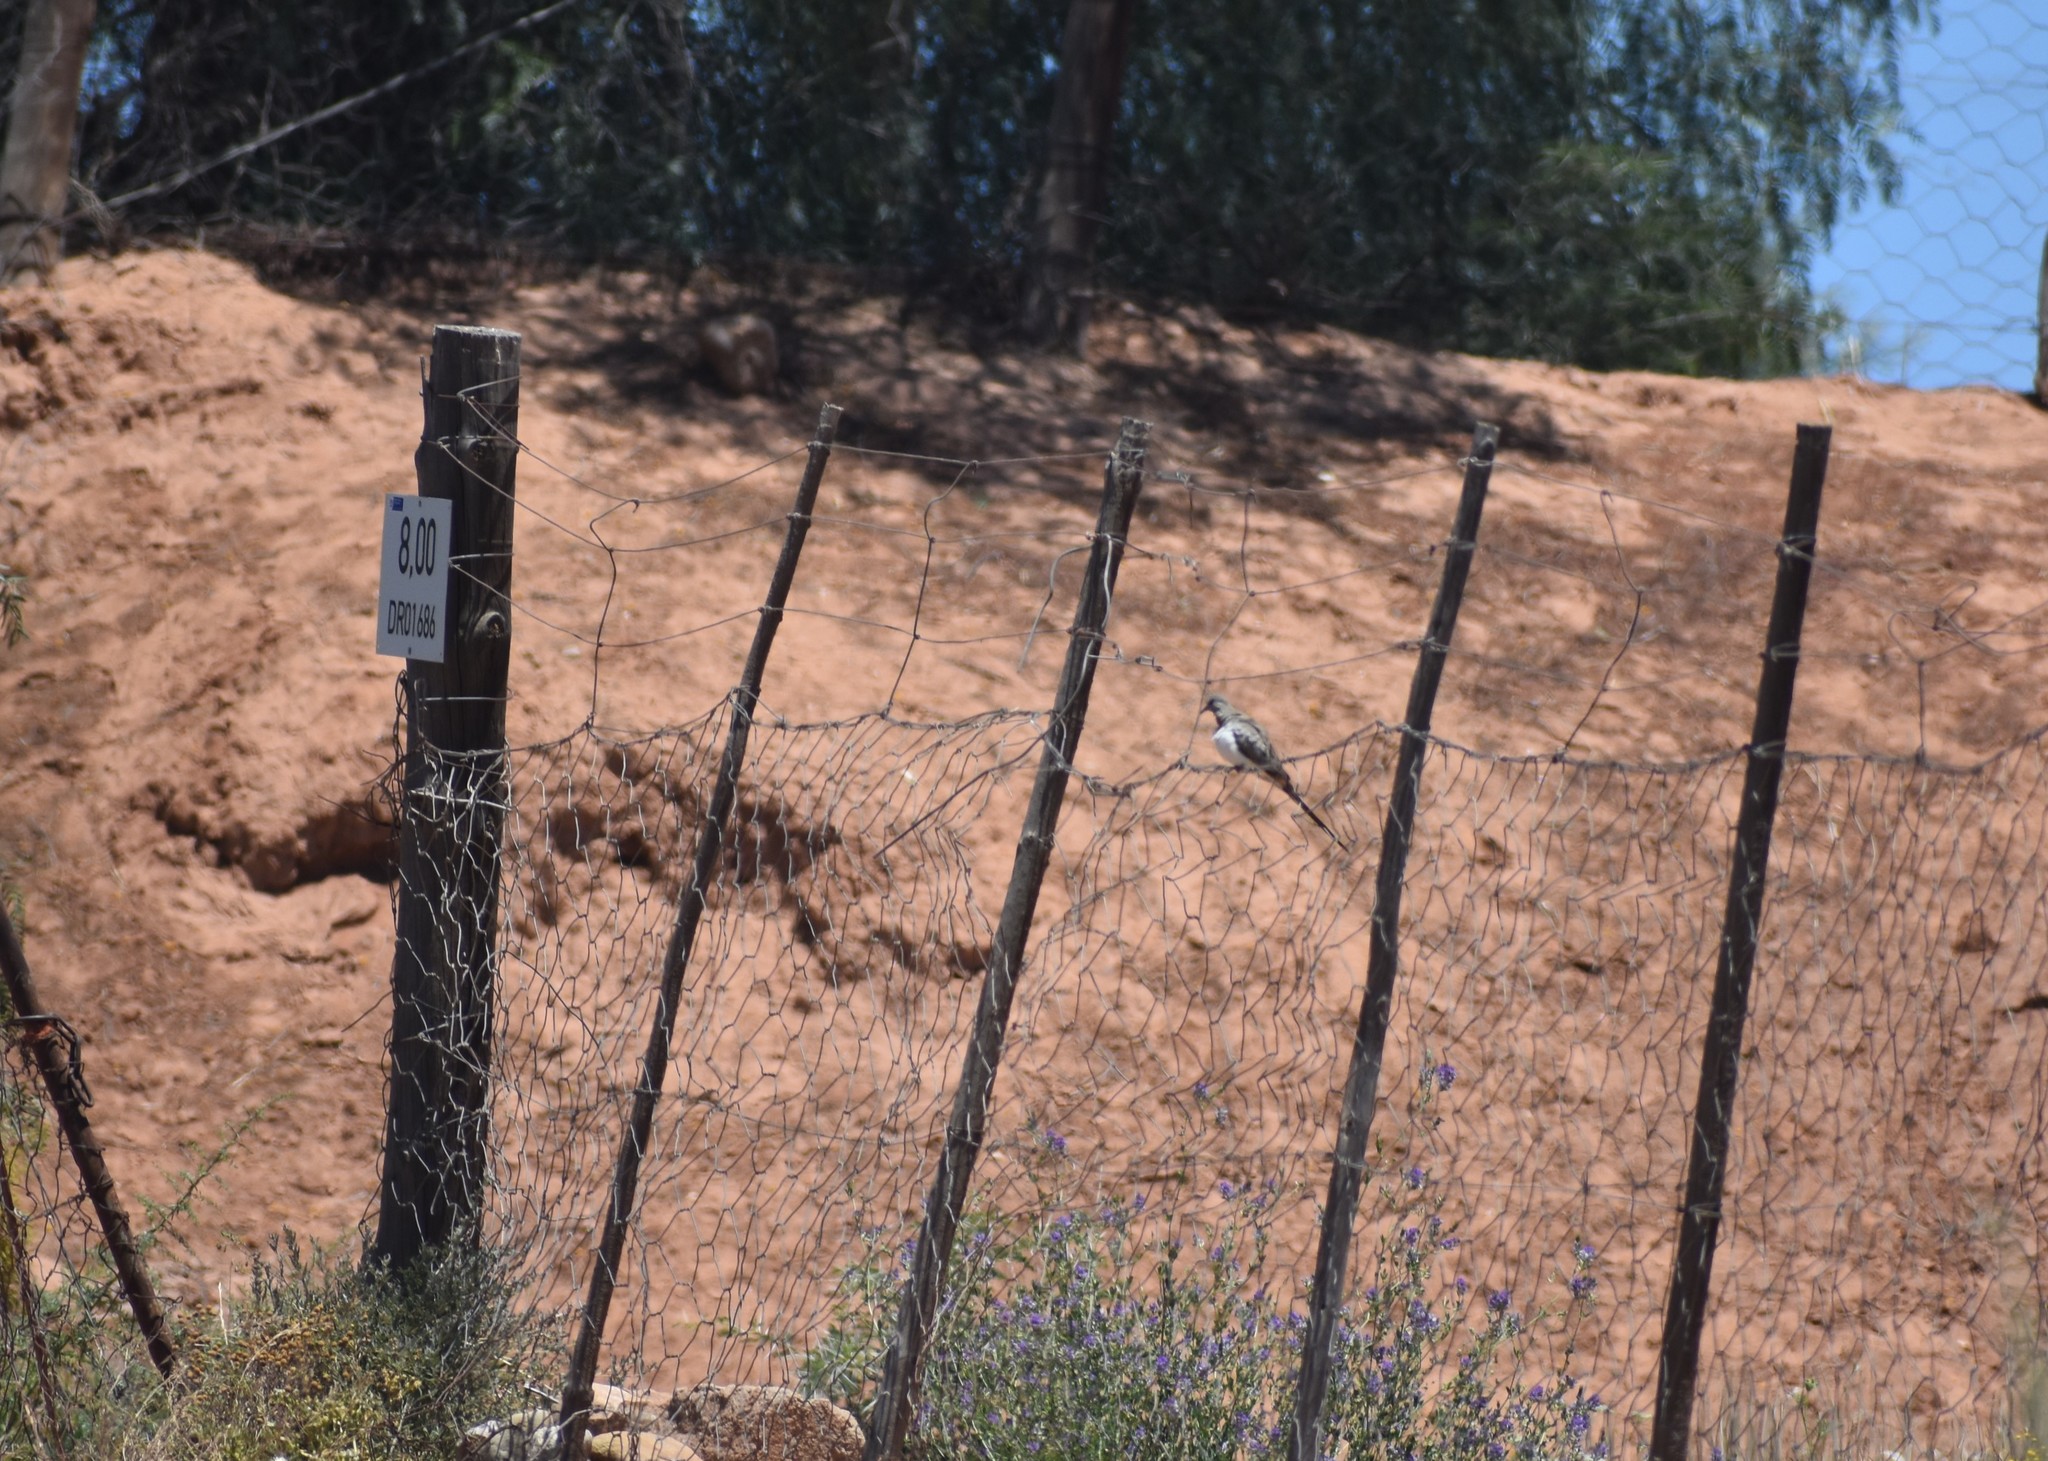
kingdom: Animalia
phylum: Chordata
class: Aves
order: Columbiformes
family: Columbidae
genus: Oena
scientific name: Oena capensis
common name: Namaqua dove
